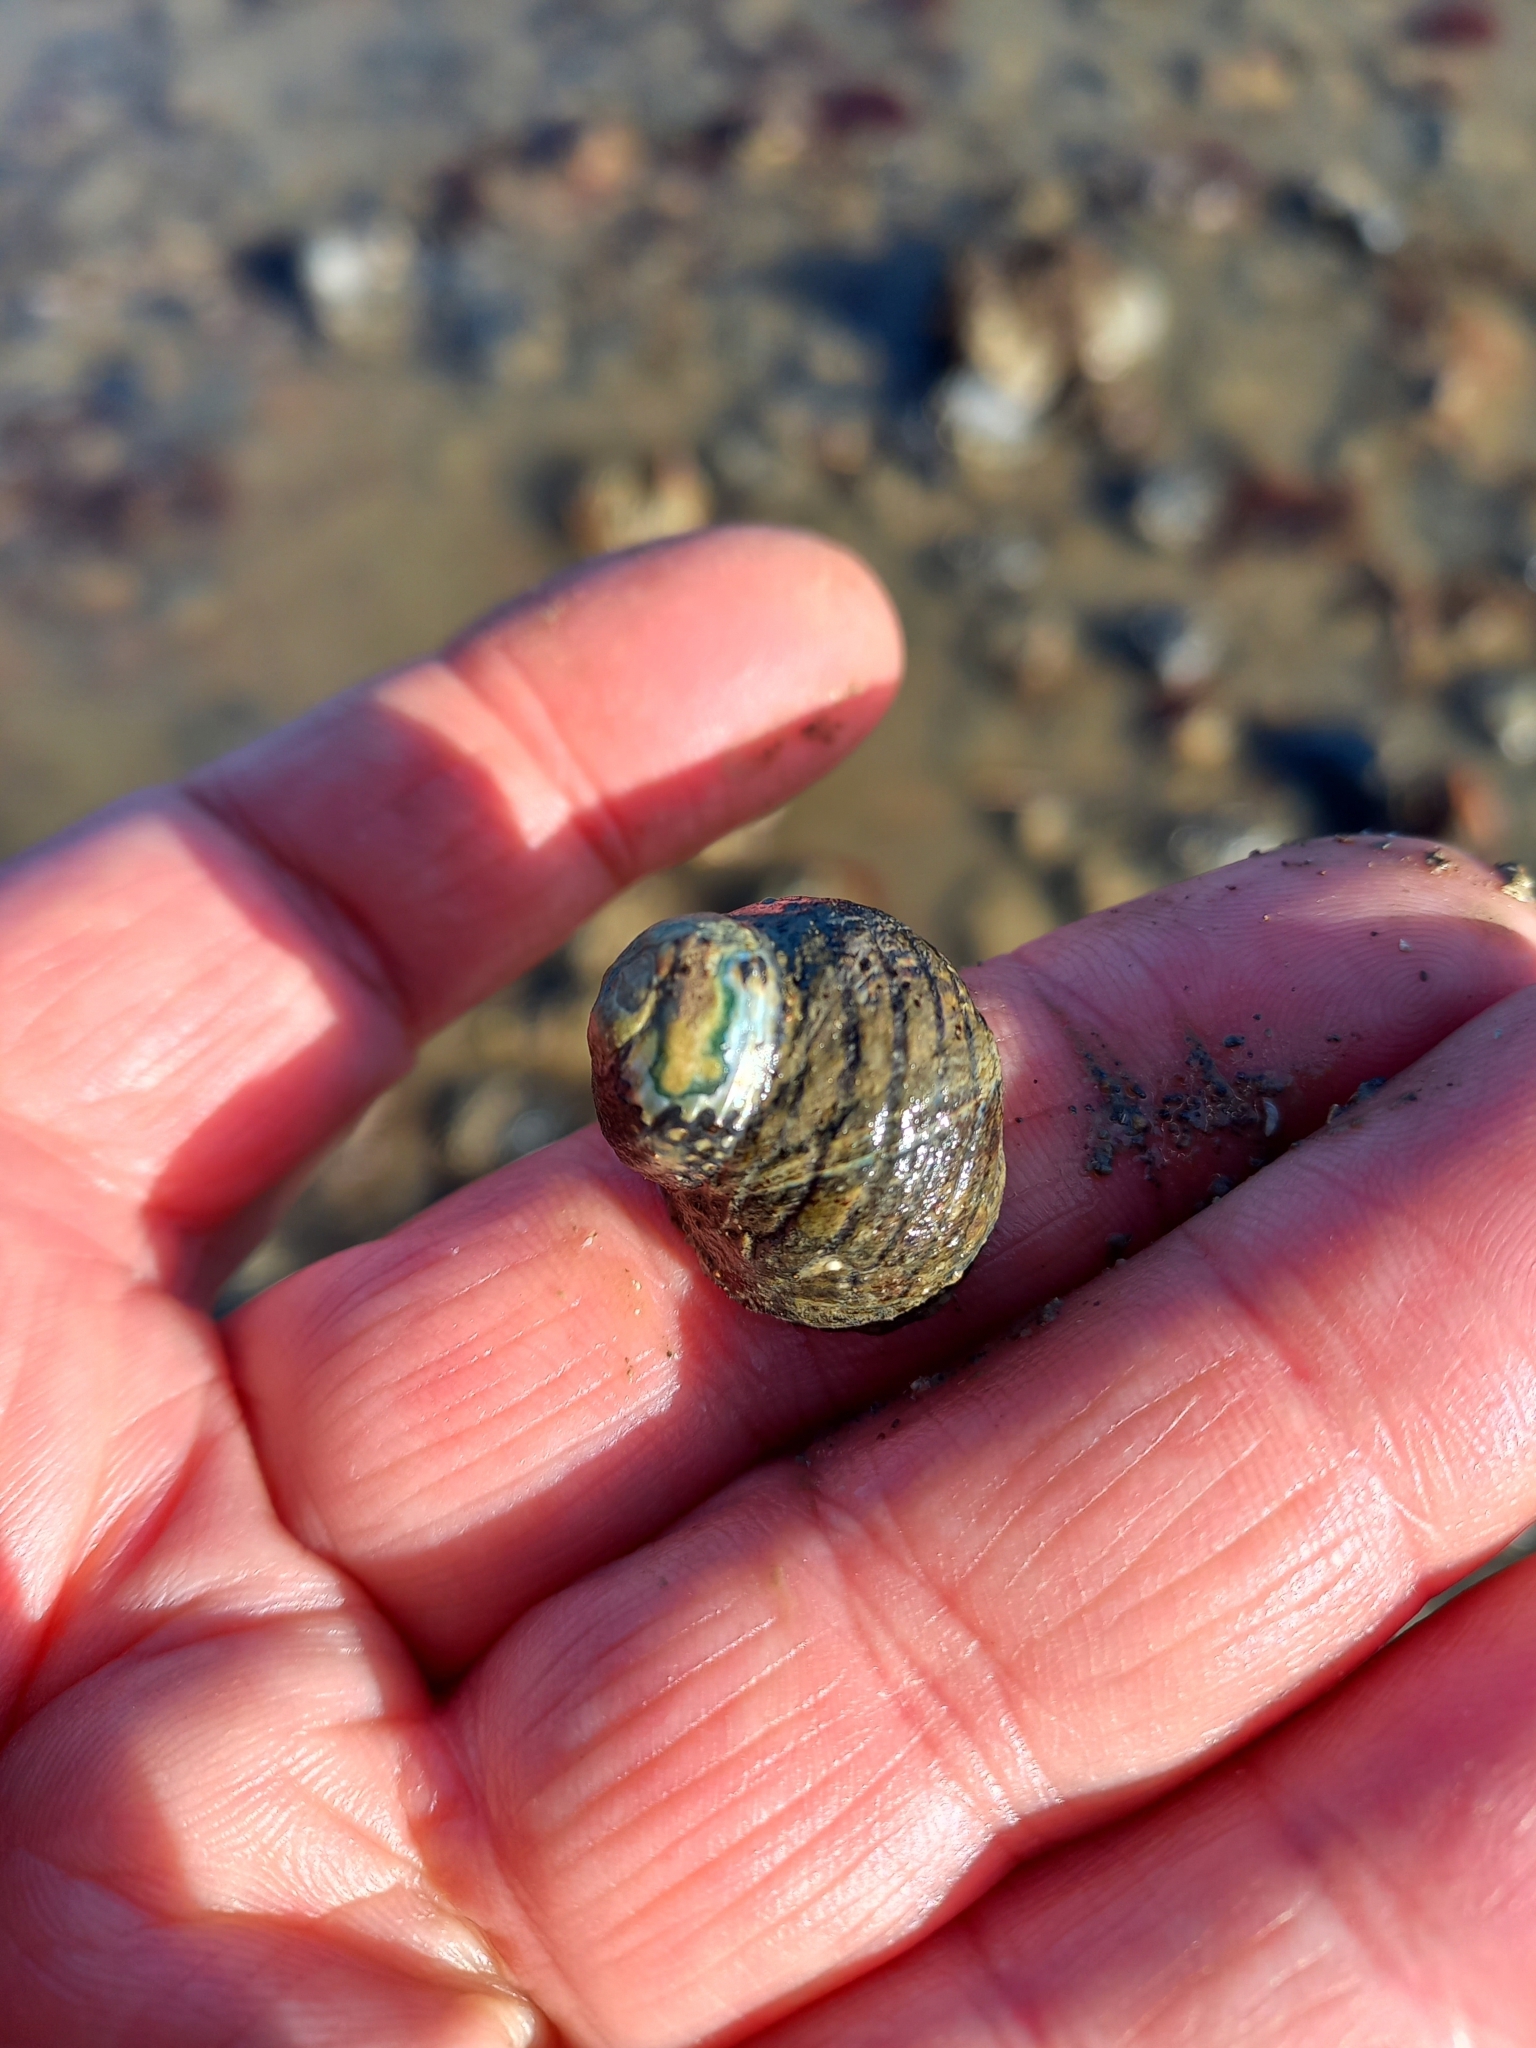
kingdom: Animalia
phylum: Mollusca
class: Gastropoda
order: Trochida
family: Trochidae
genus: Diloma
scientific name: Diloma aethiops
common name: Scorched monodont
